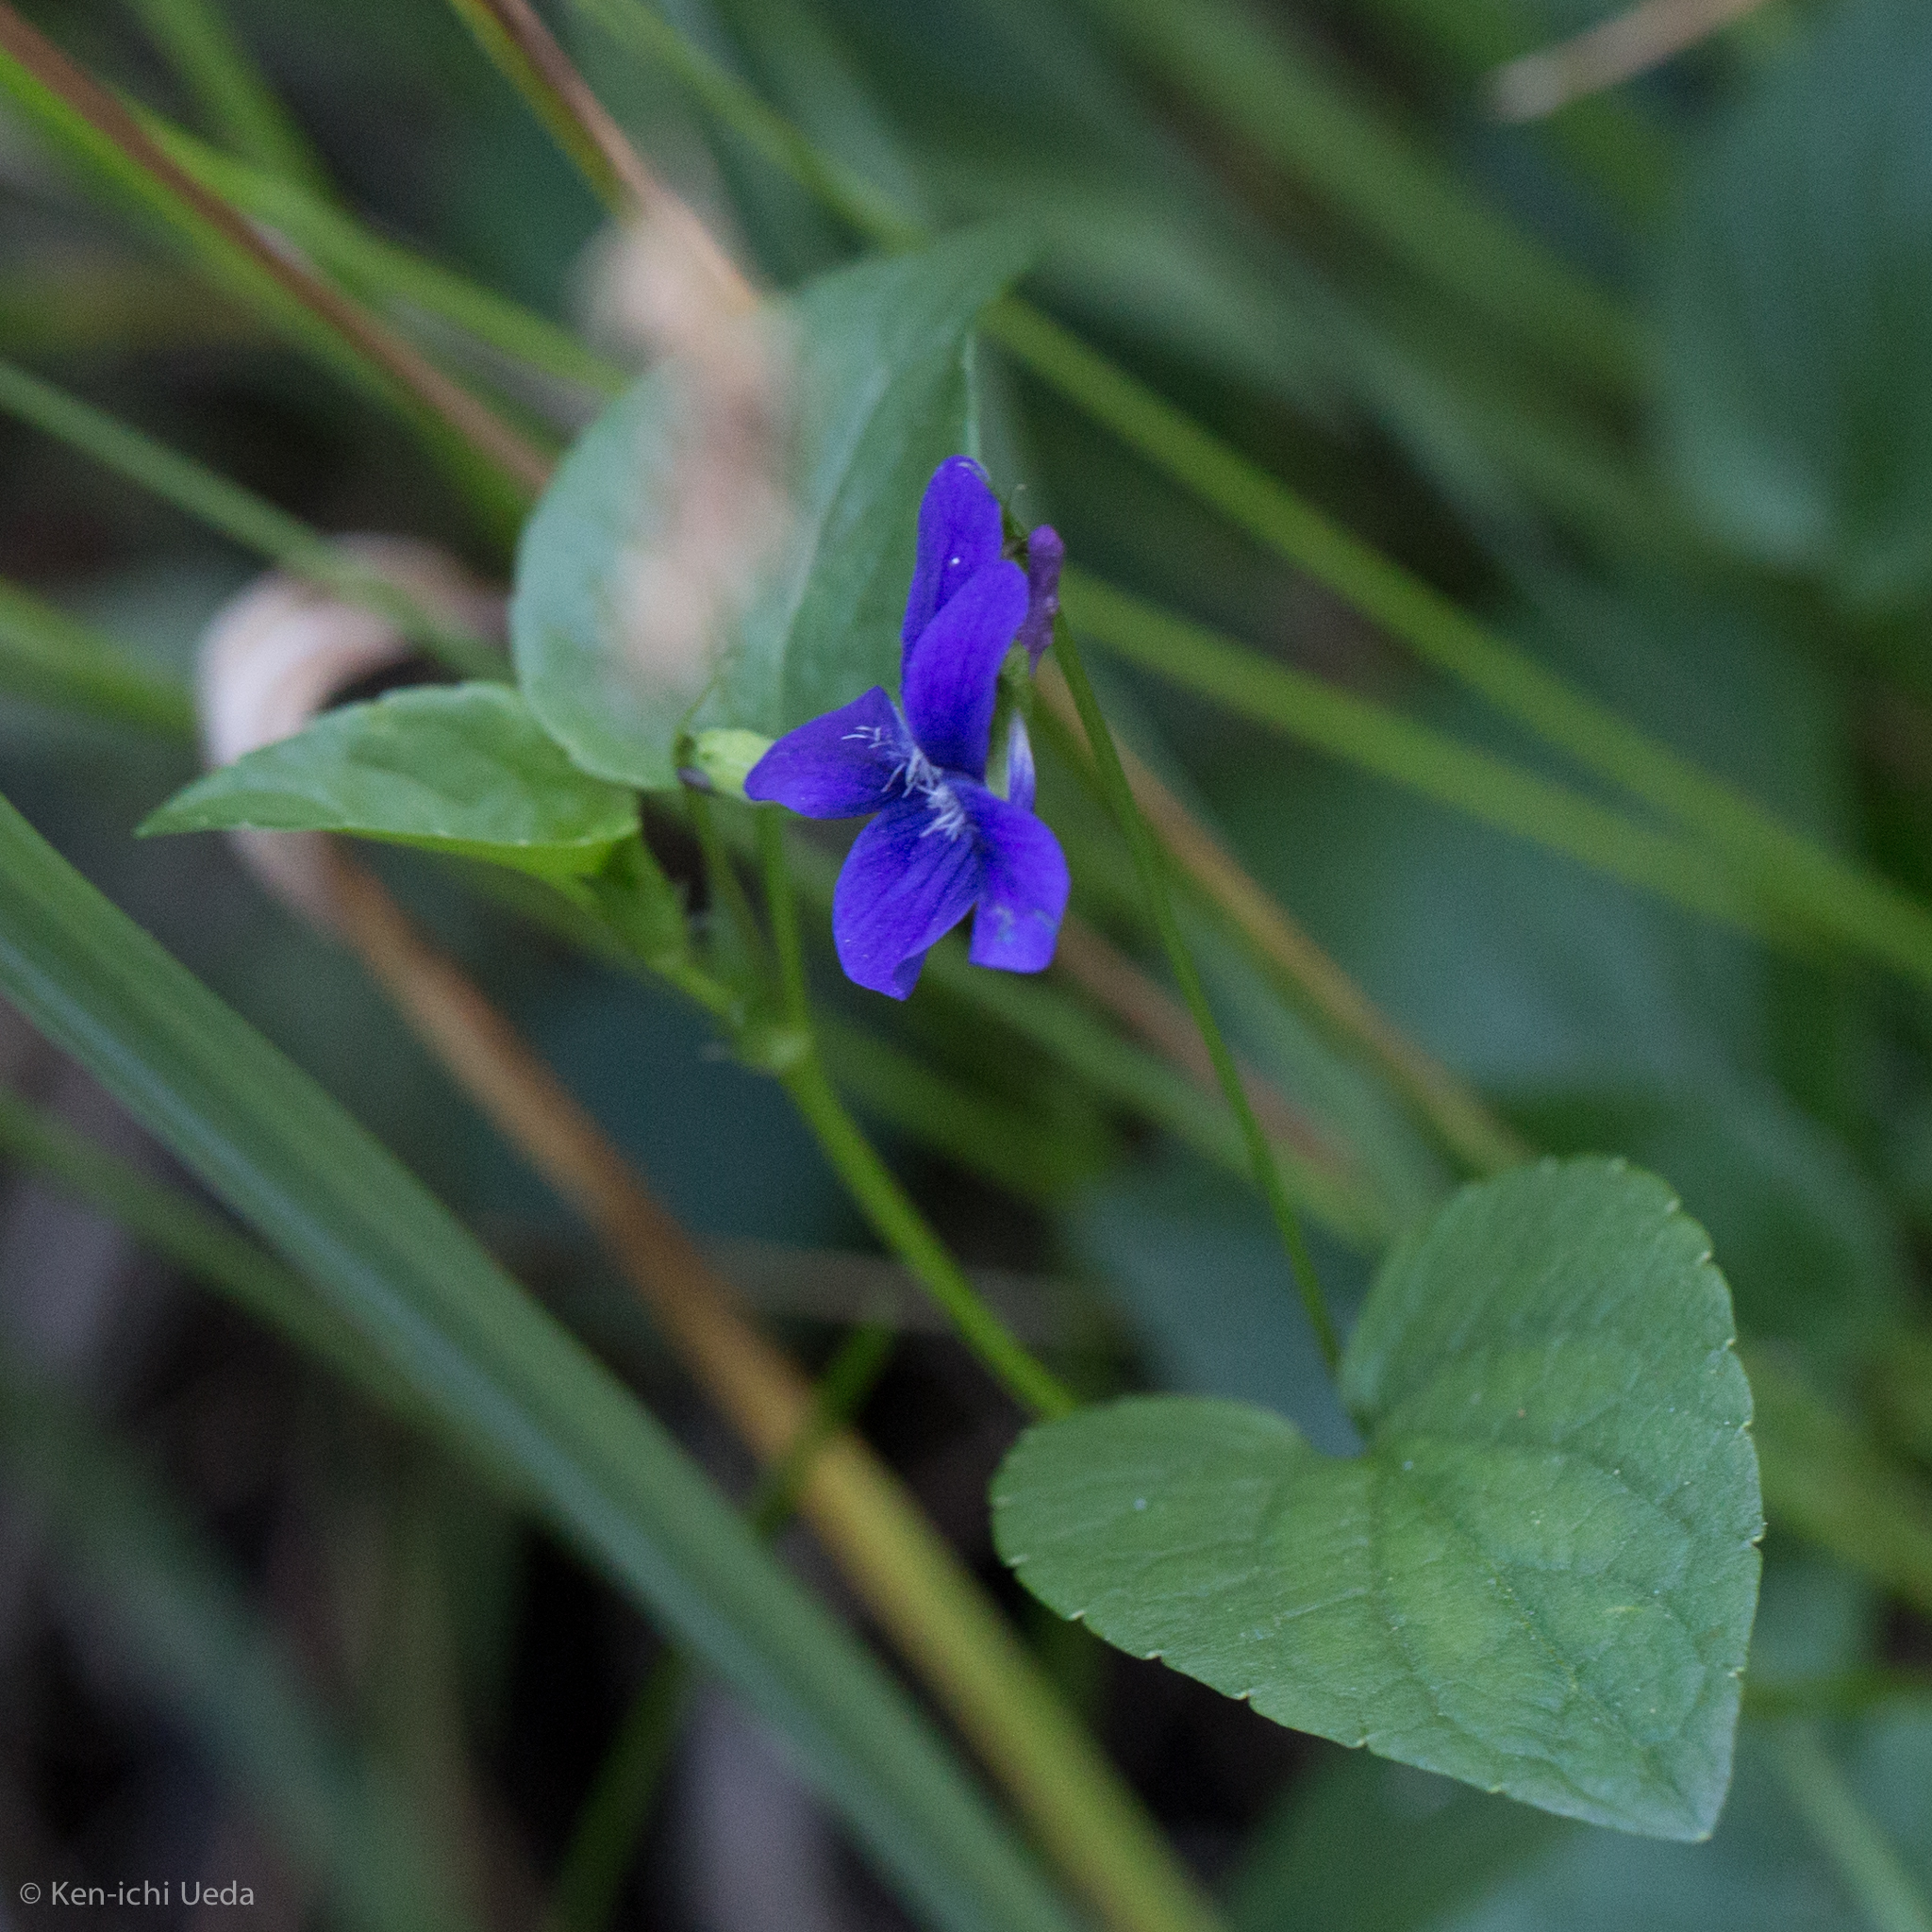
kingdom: Plantae
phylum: Tracheophyta
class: Magnoliopsida
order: Malpighiales
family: Violaceae
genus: Viola
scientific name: Viola adunca
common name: Sand violet
